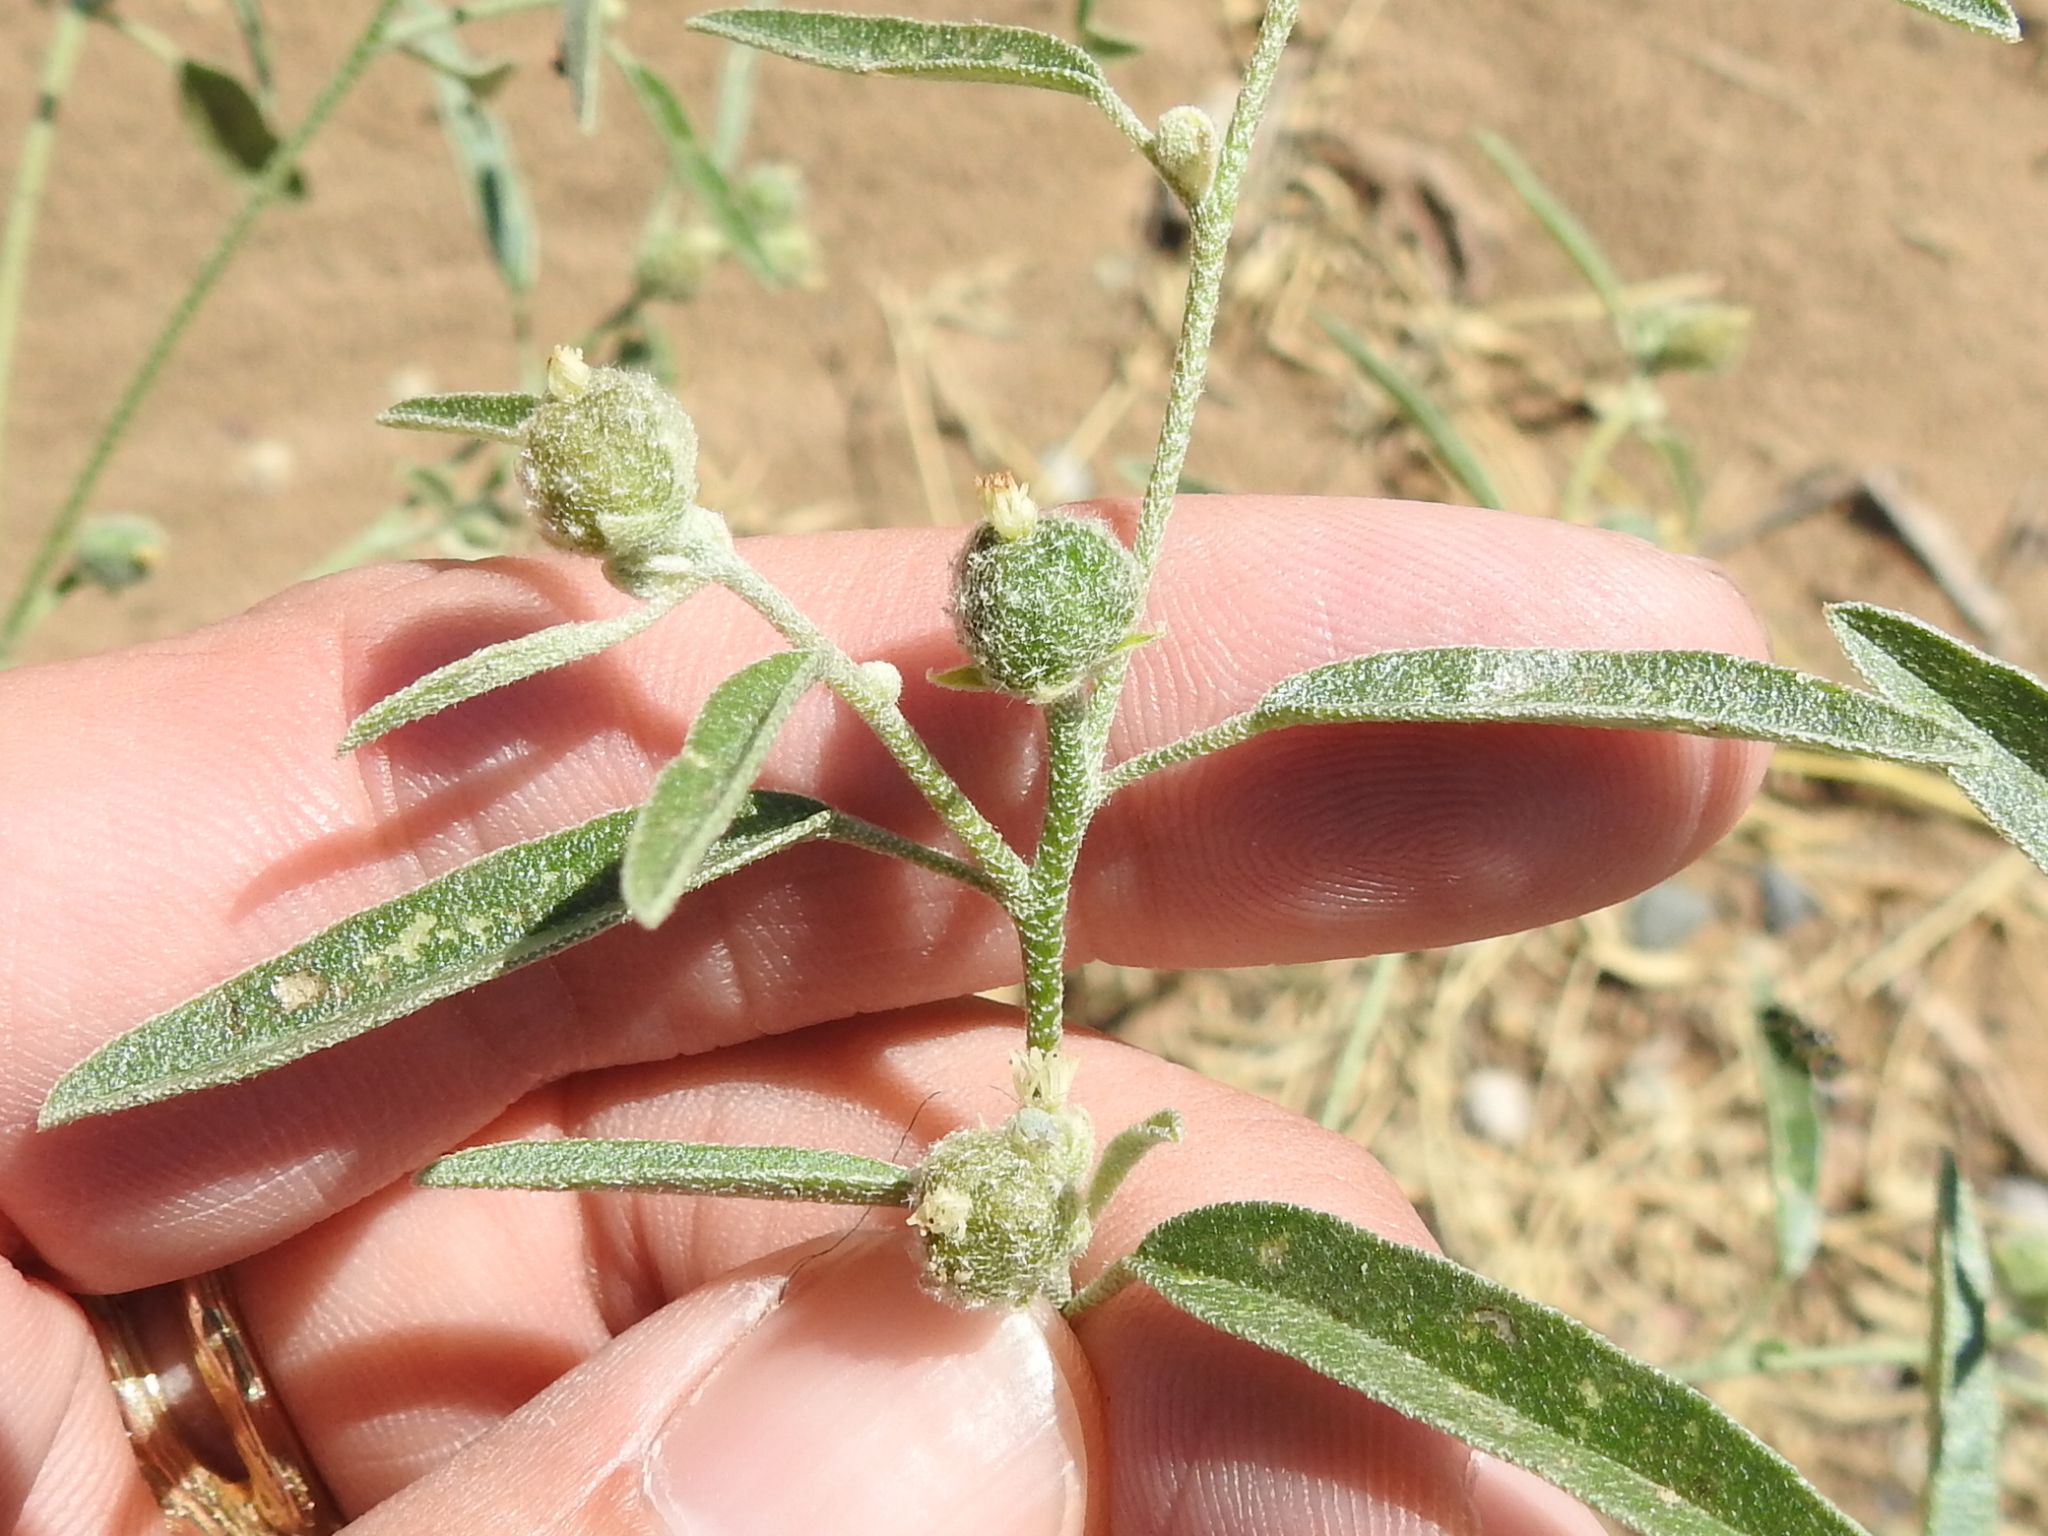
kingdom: Plantae
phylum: Tracheophyta
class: Magnoliopsida
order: Malpighiales
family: Euphorbiaceae
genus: Croton
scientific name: Croton texensis
